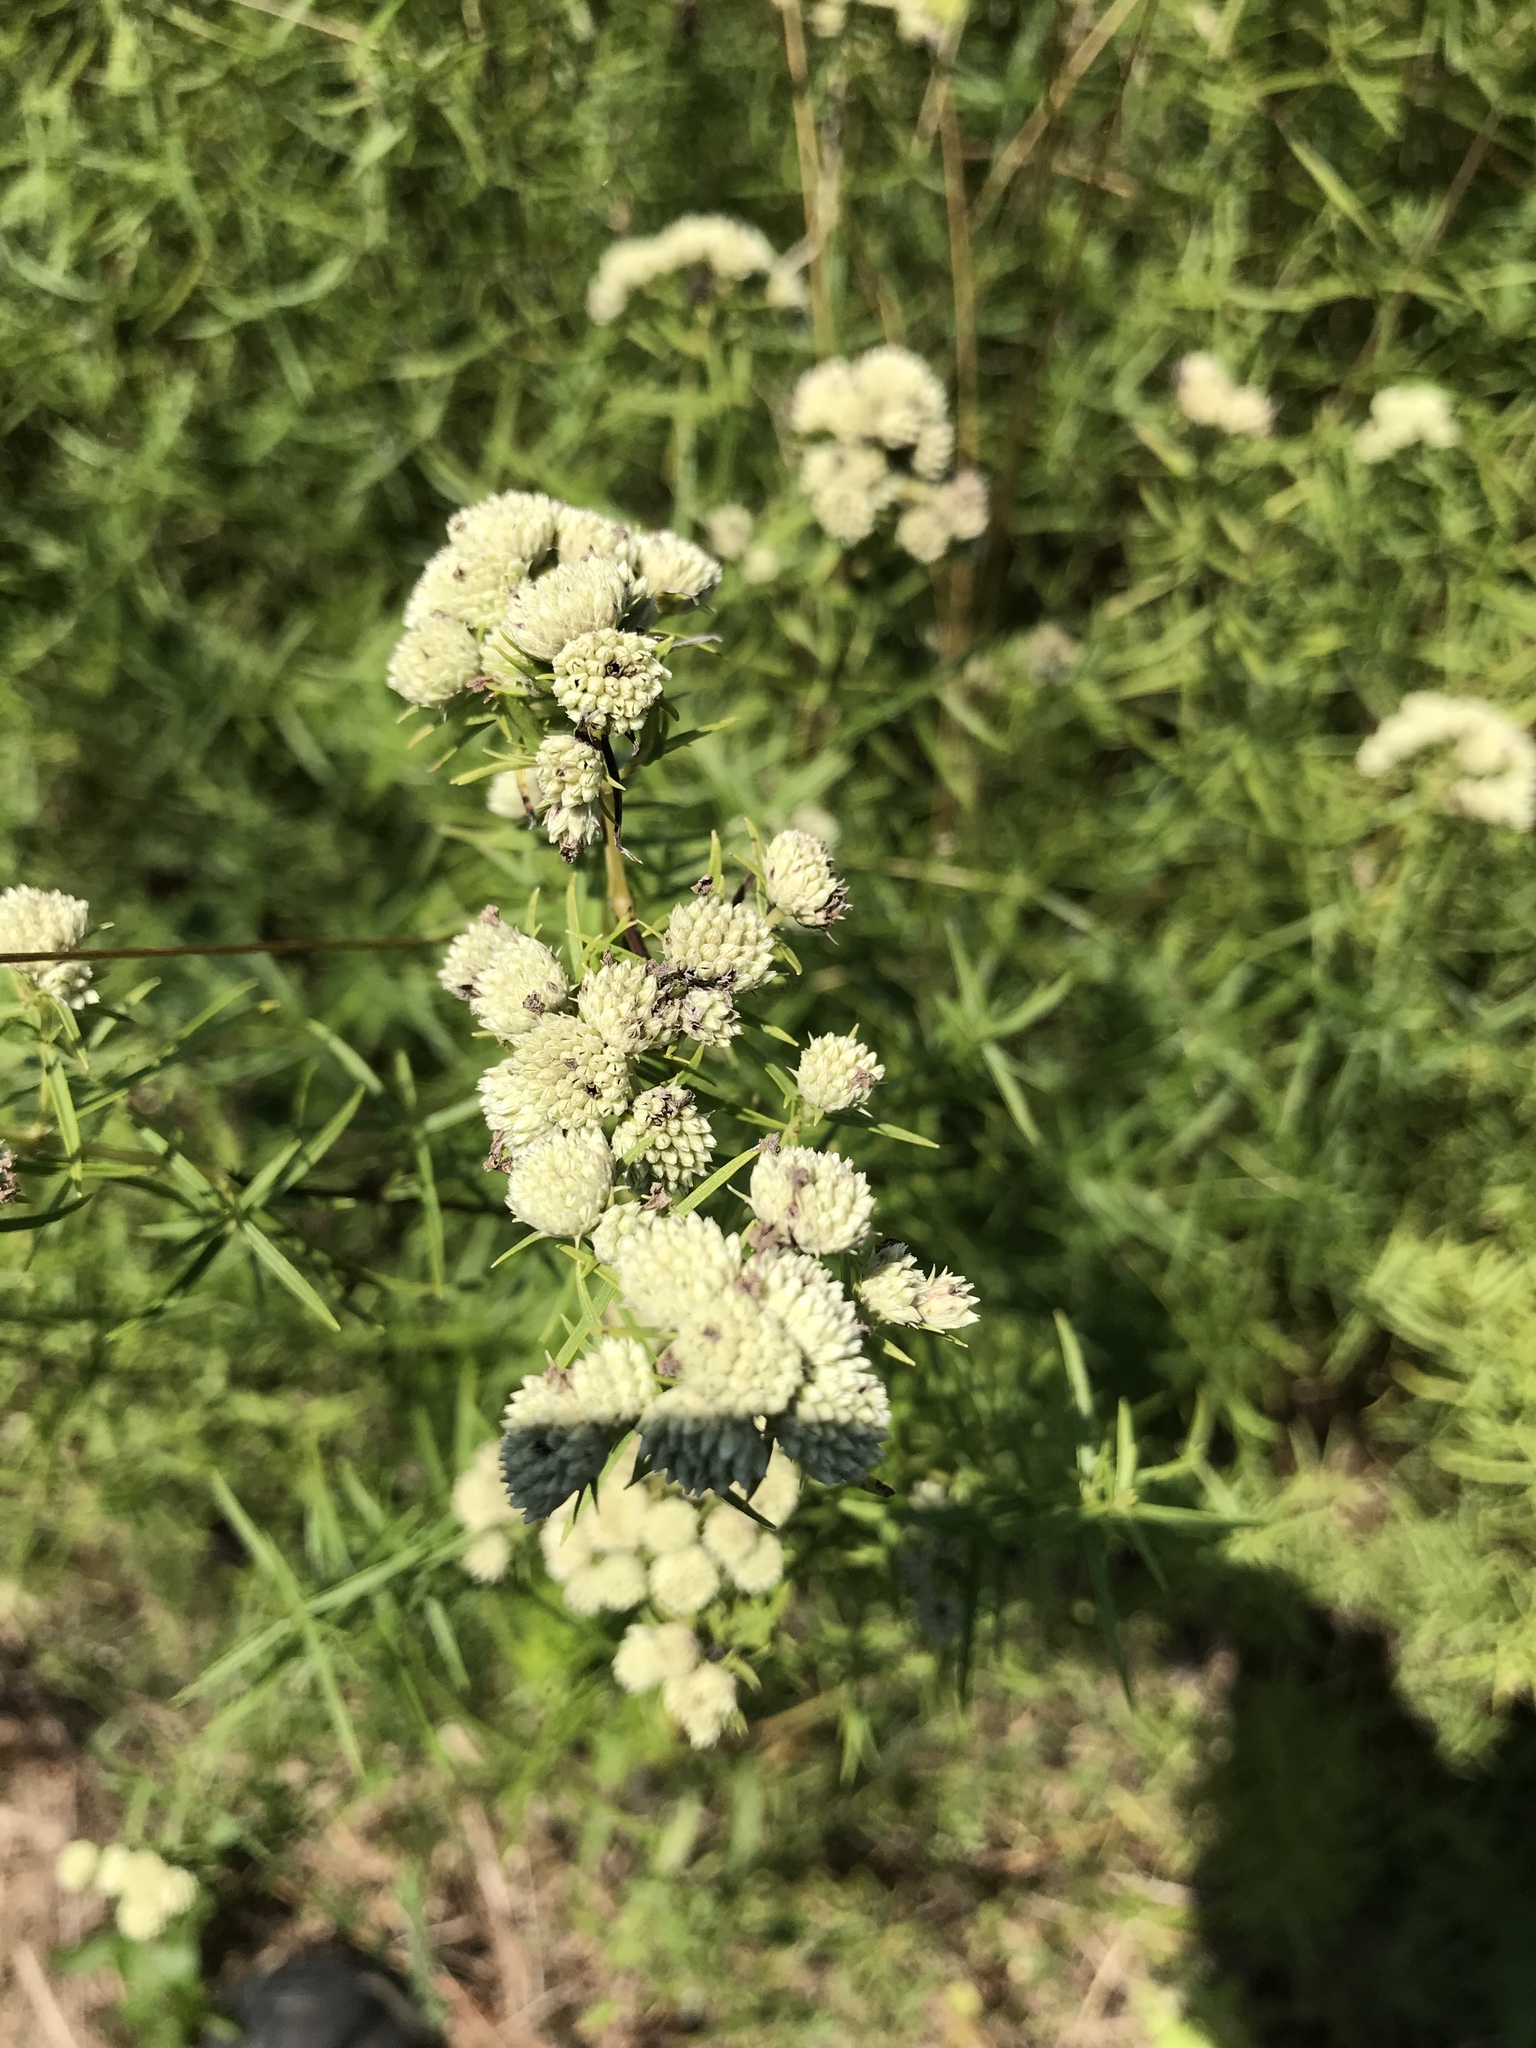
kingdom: Plantae
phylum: Tracheophyta
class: Magnoliopsida
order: Lamiales
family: Lamiaceae
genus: Pycnanthemum
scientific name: Pycnanthemum tenuifolium
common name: Narrow-leaf mountain-mint
